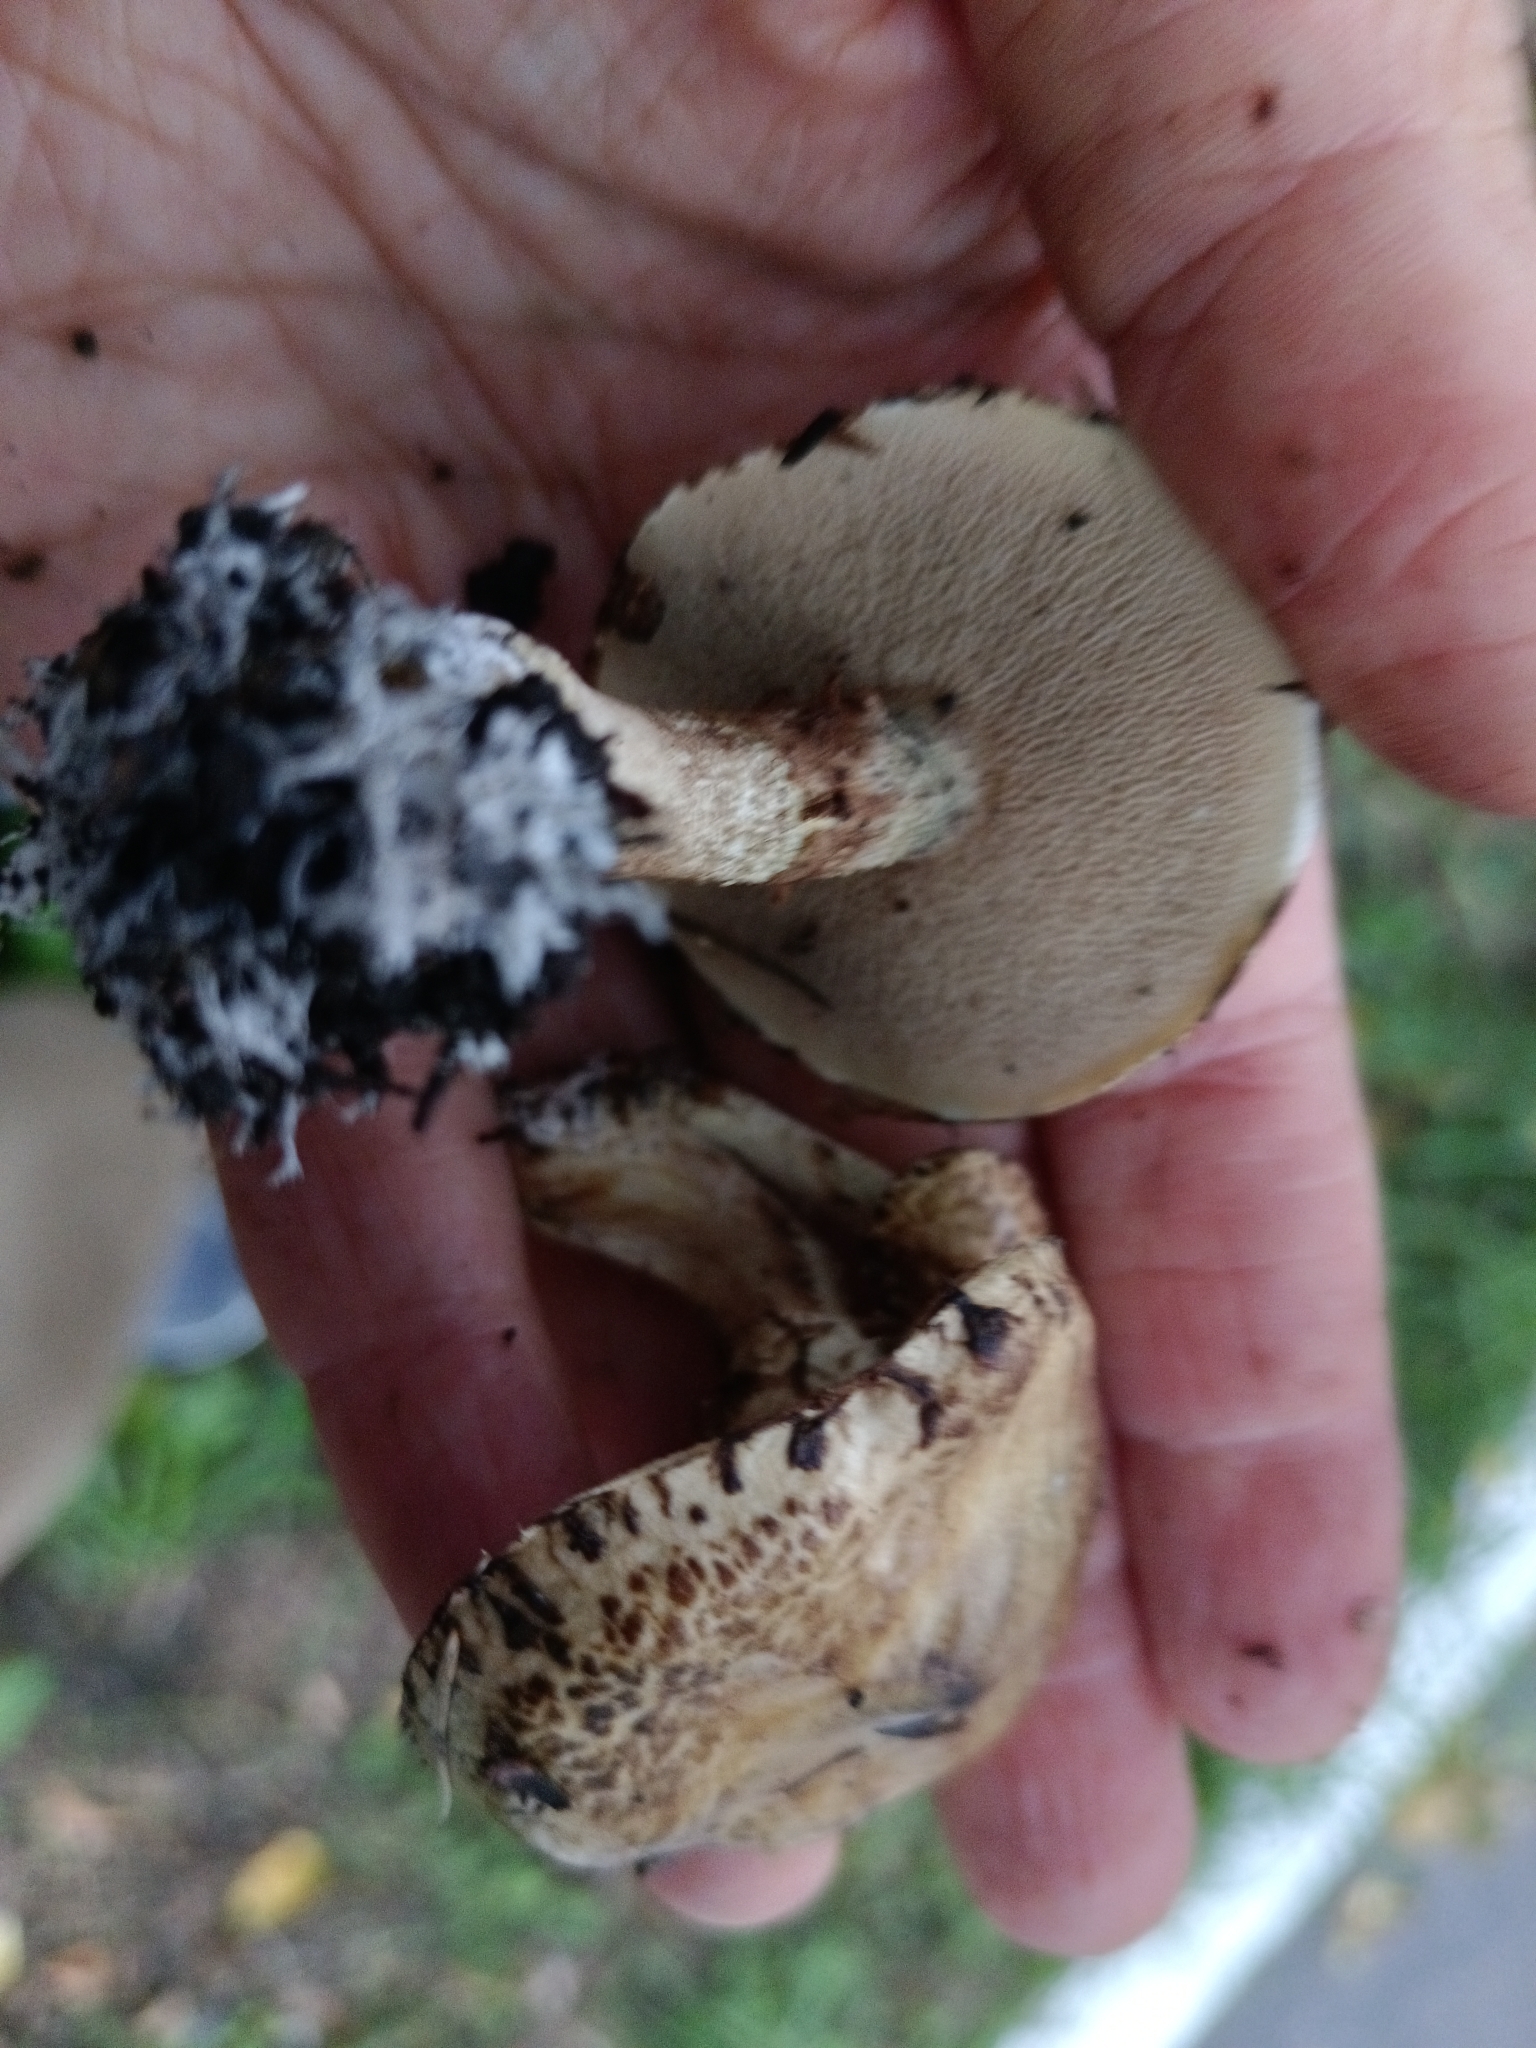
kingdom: Fungi
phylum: Basidiomycota
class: Agaricomycetes
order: Boletales
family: Suillaceae
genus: Suillus
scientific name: Suillus viscidus
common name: Sticky bolete
